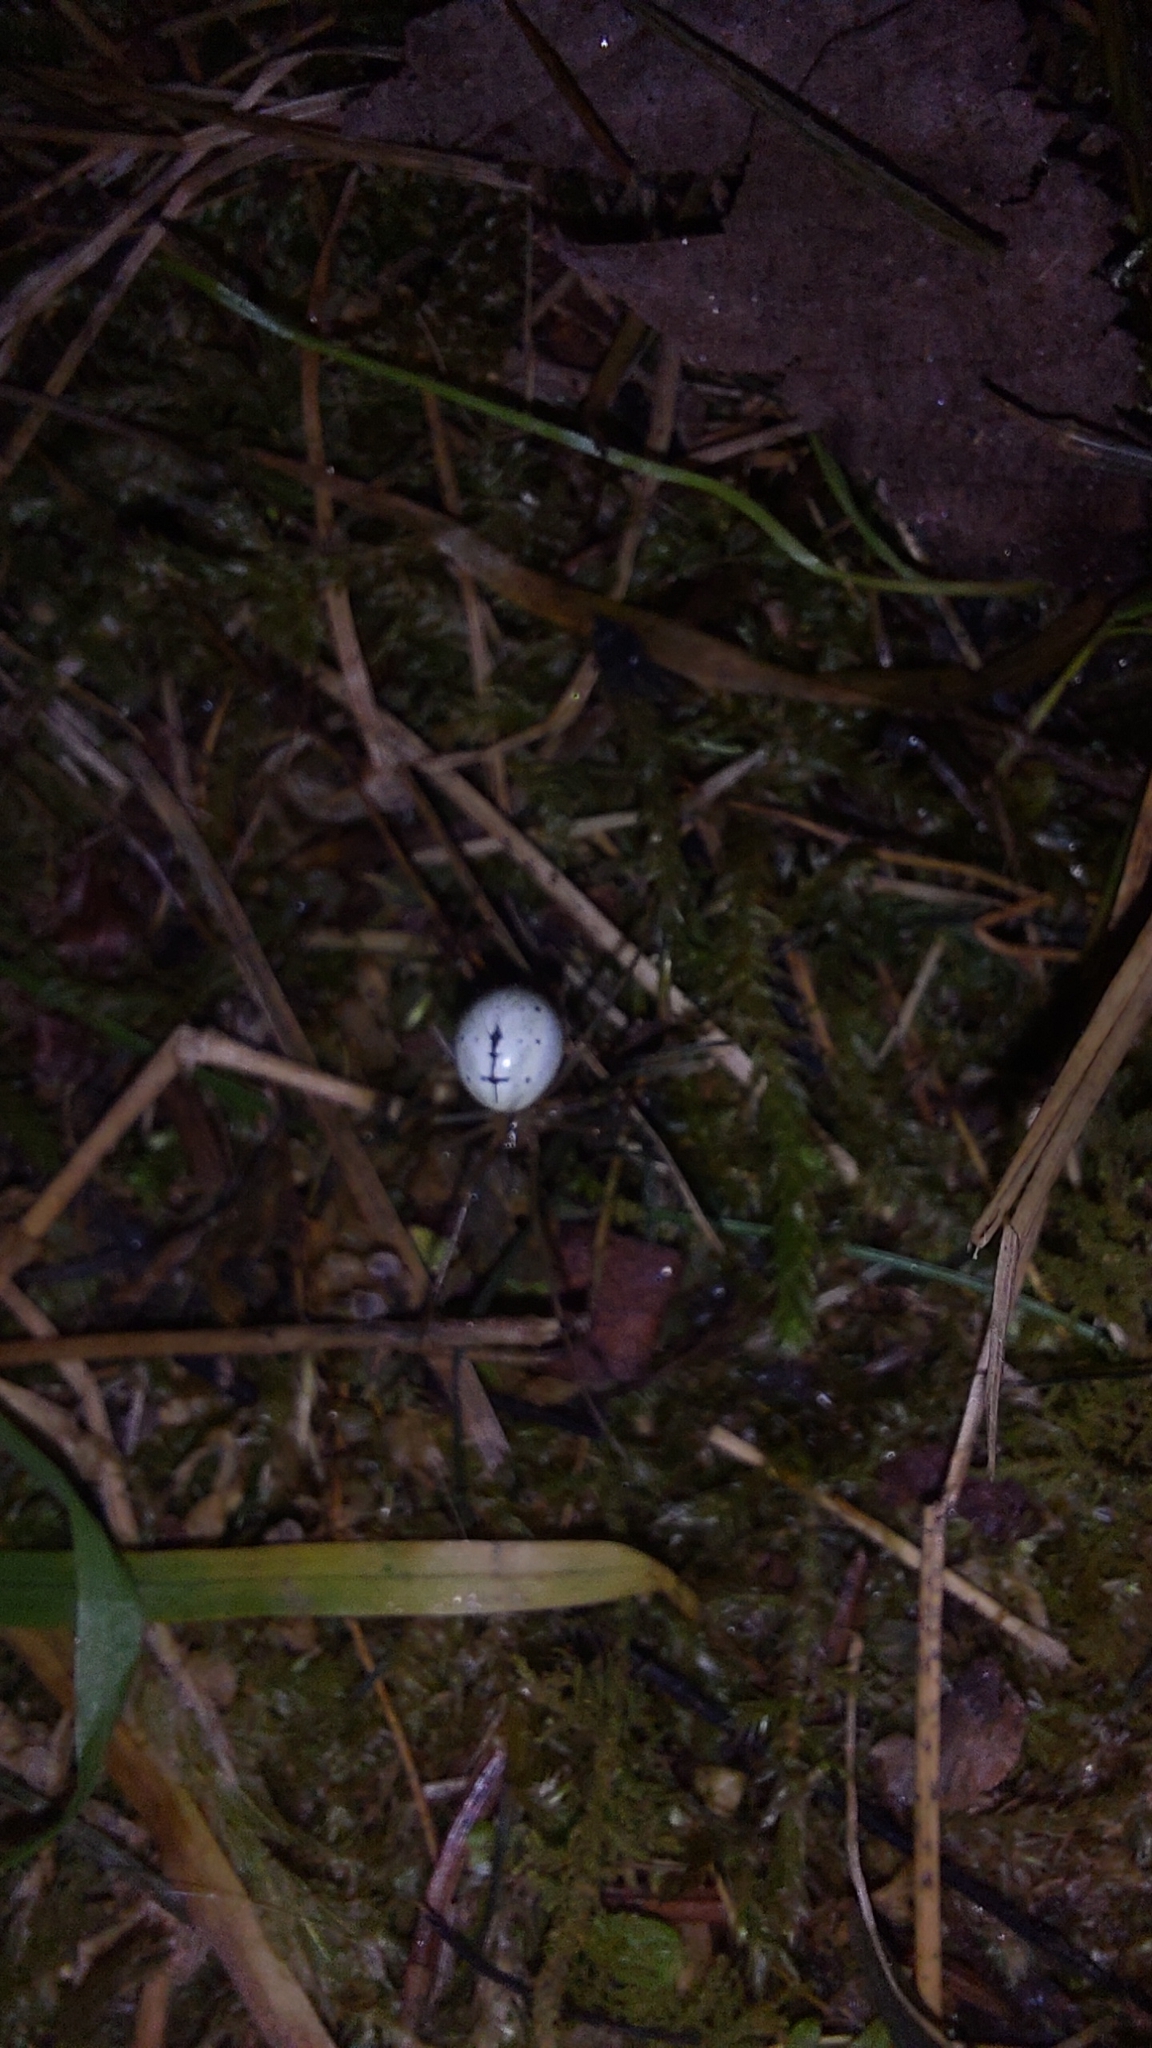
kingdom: Animalia
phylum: Arthropoda
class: Arachnida
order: Araneae
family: Theridiidae
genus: Enoplognatha
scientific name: Enoplognatha ovata
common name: Common candy-striped spider
